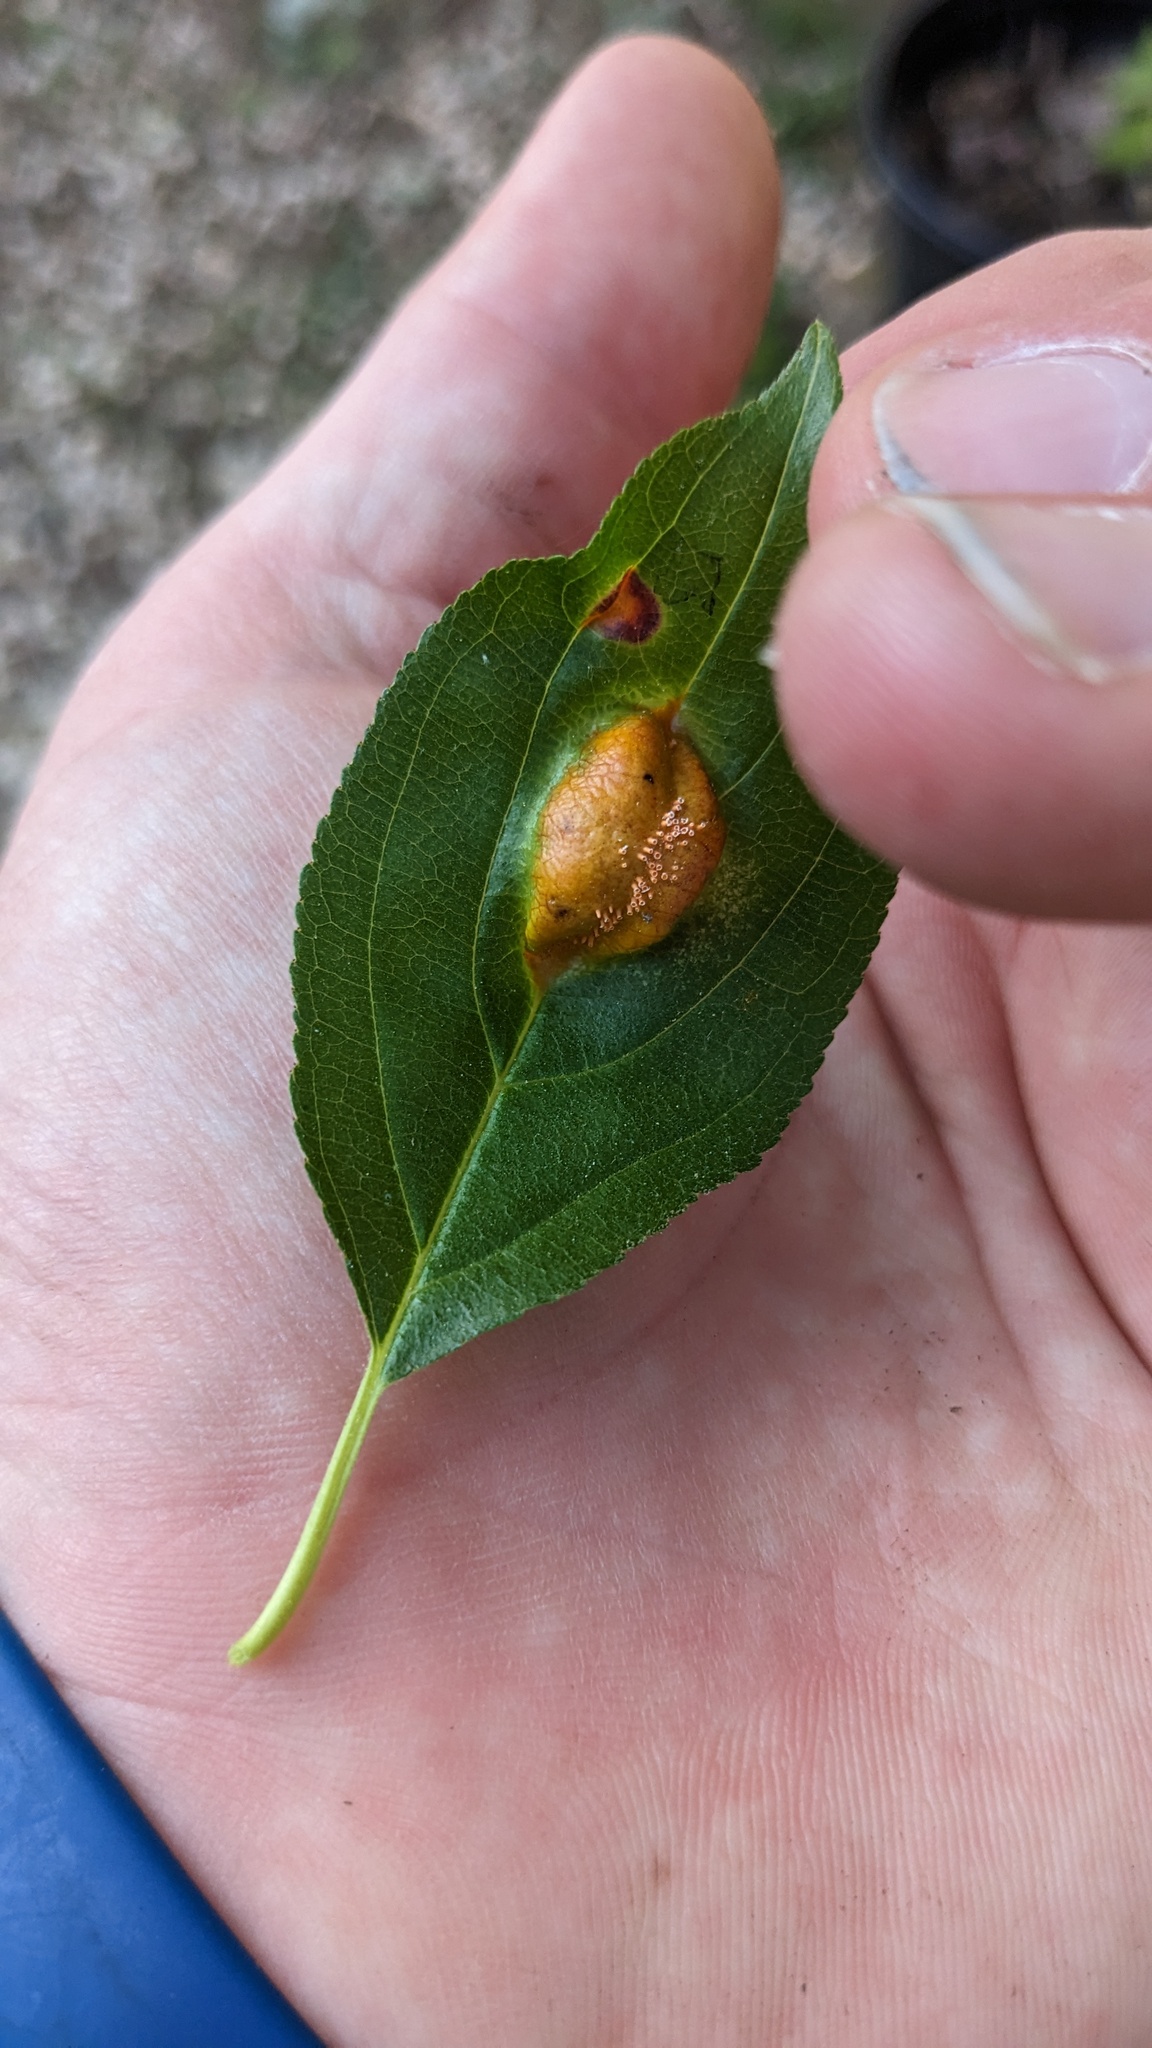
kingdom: Fungi
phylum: Basidiomycota
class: Pucciniomycetes
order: Pucciniales
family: Pucciniaceae
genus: Puccinia
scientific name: Puccinia
